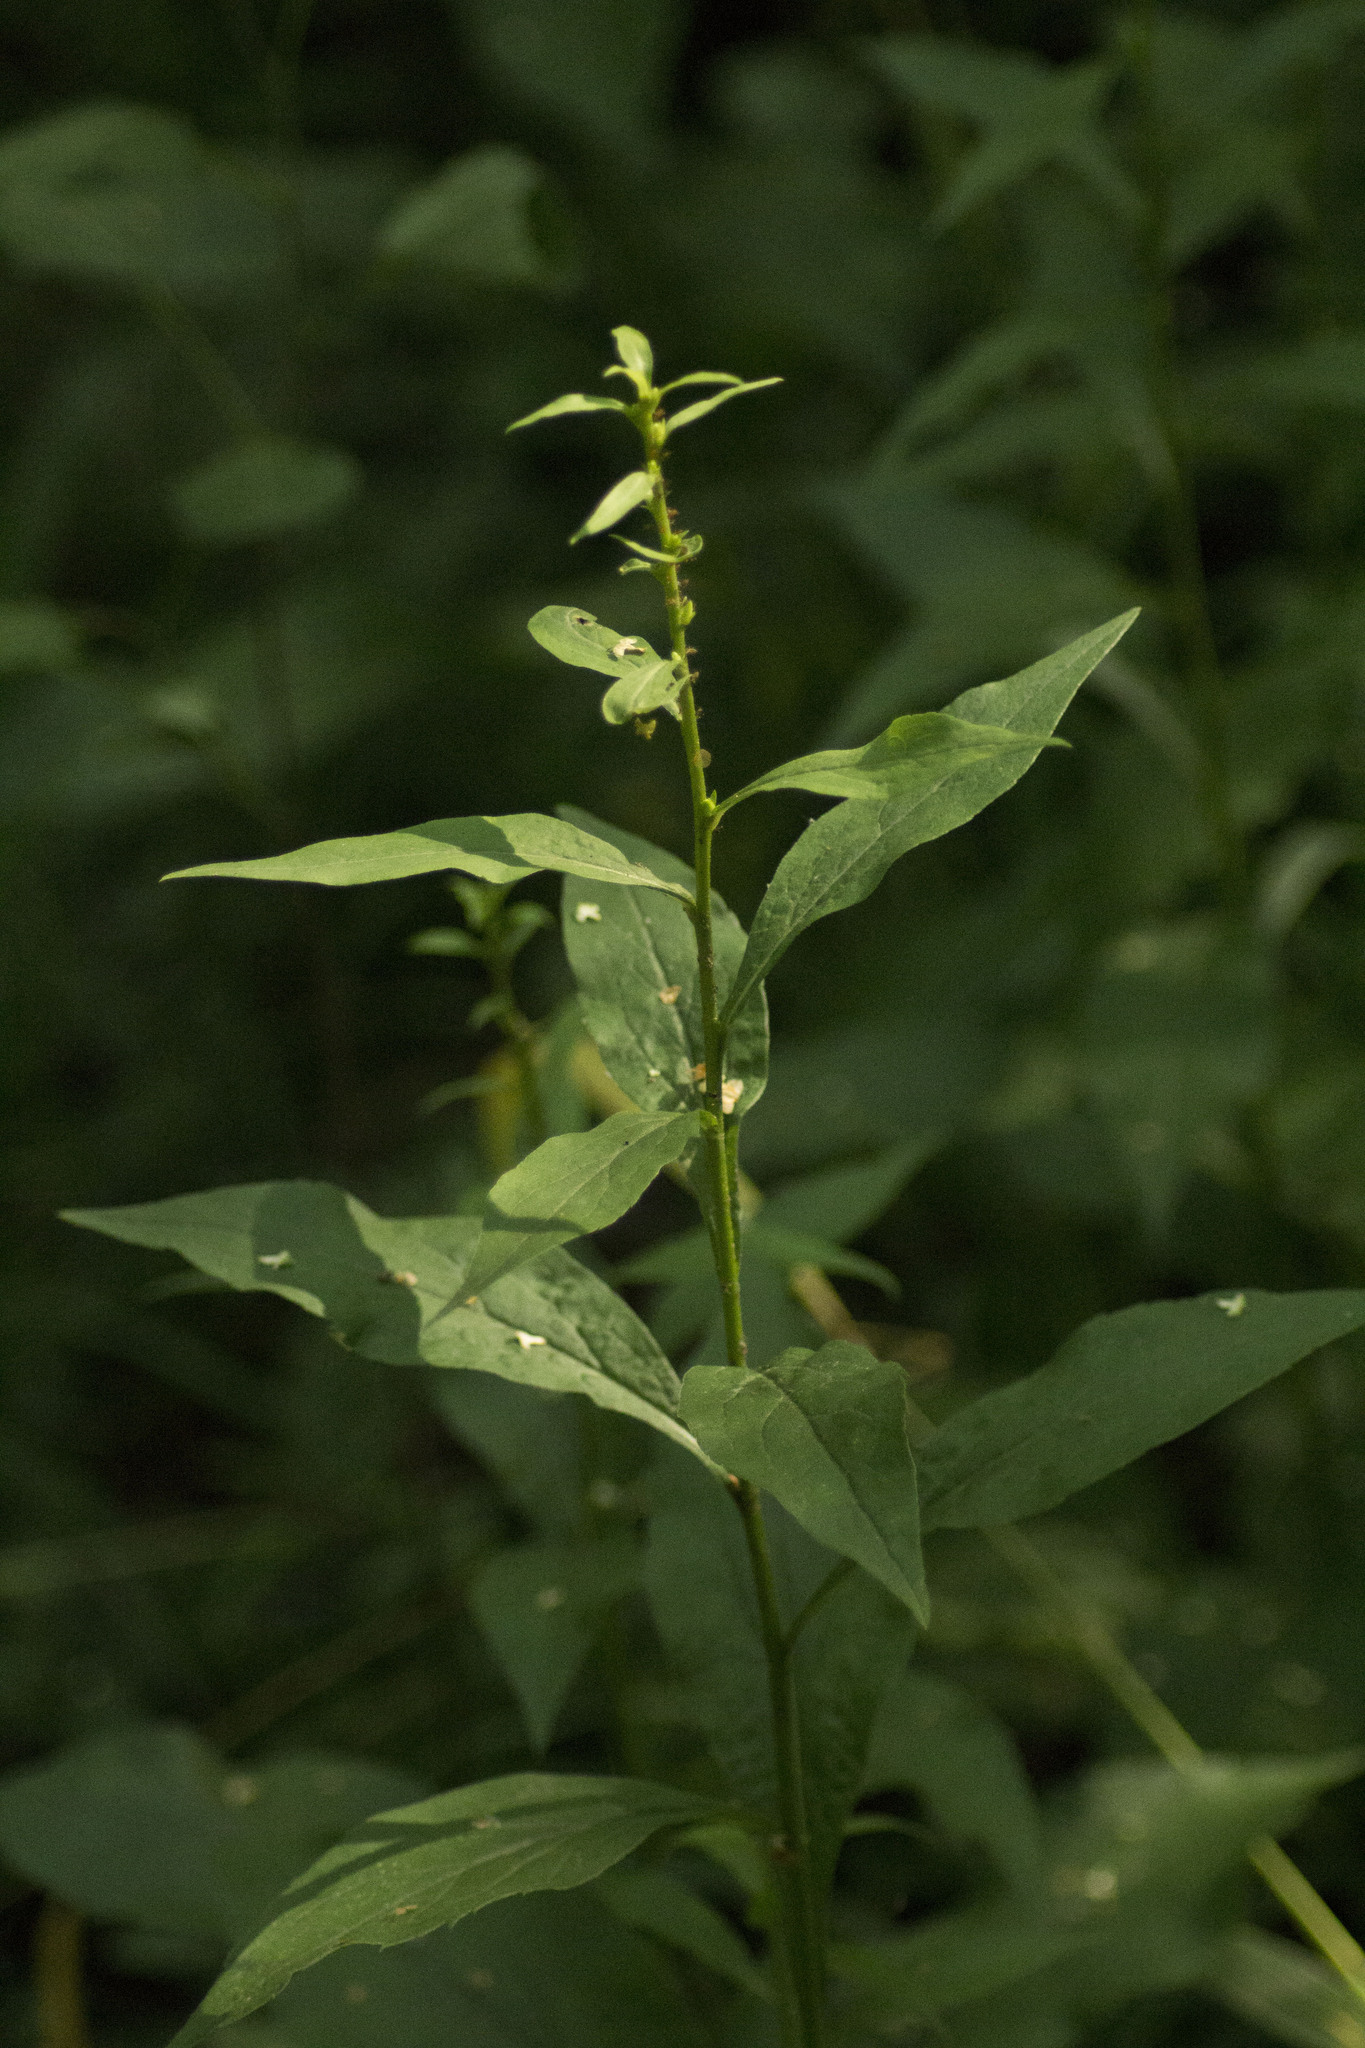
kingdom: Plantae
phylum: Tracheophyta
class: Magnoliopsida
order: Asterales
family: Asteraceae
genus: Solidago
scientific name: Solidago virgaurea
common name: Goldenrod
